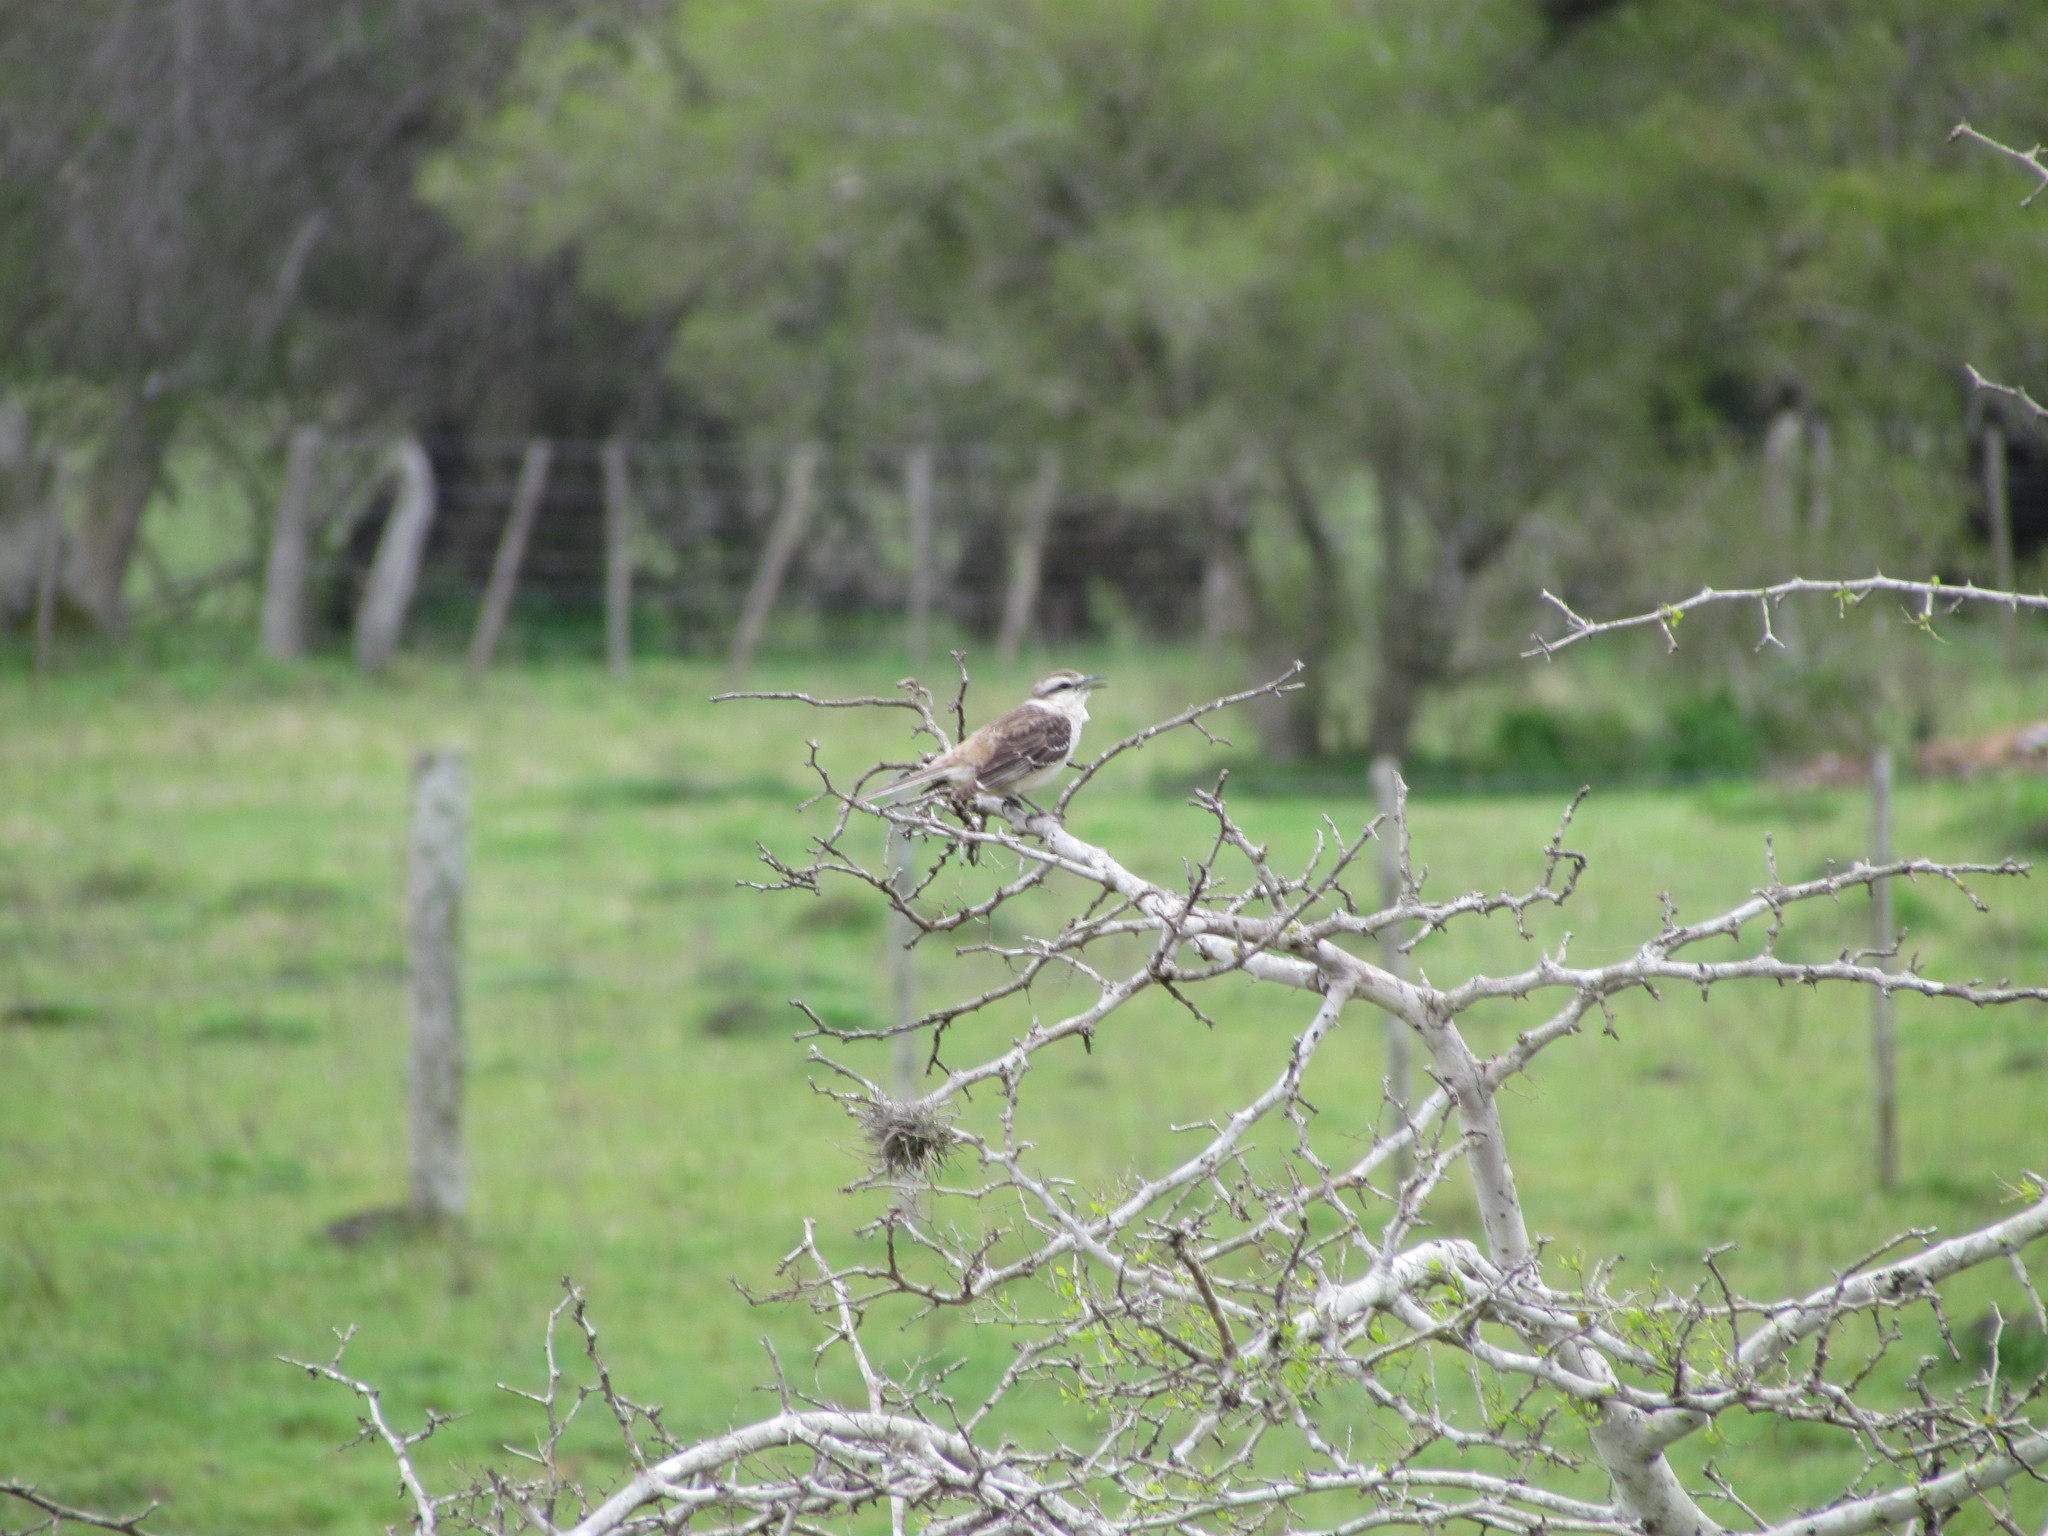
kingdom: Animalia
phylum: Chordata
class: Aves
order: Passeriformes
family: Mimidae
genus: Mimus
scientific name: Mimus saturninus
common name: Chalk-browed mockingbird
